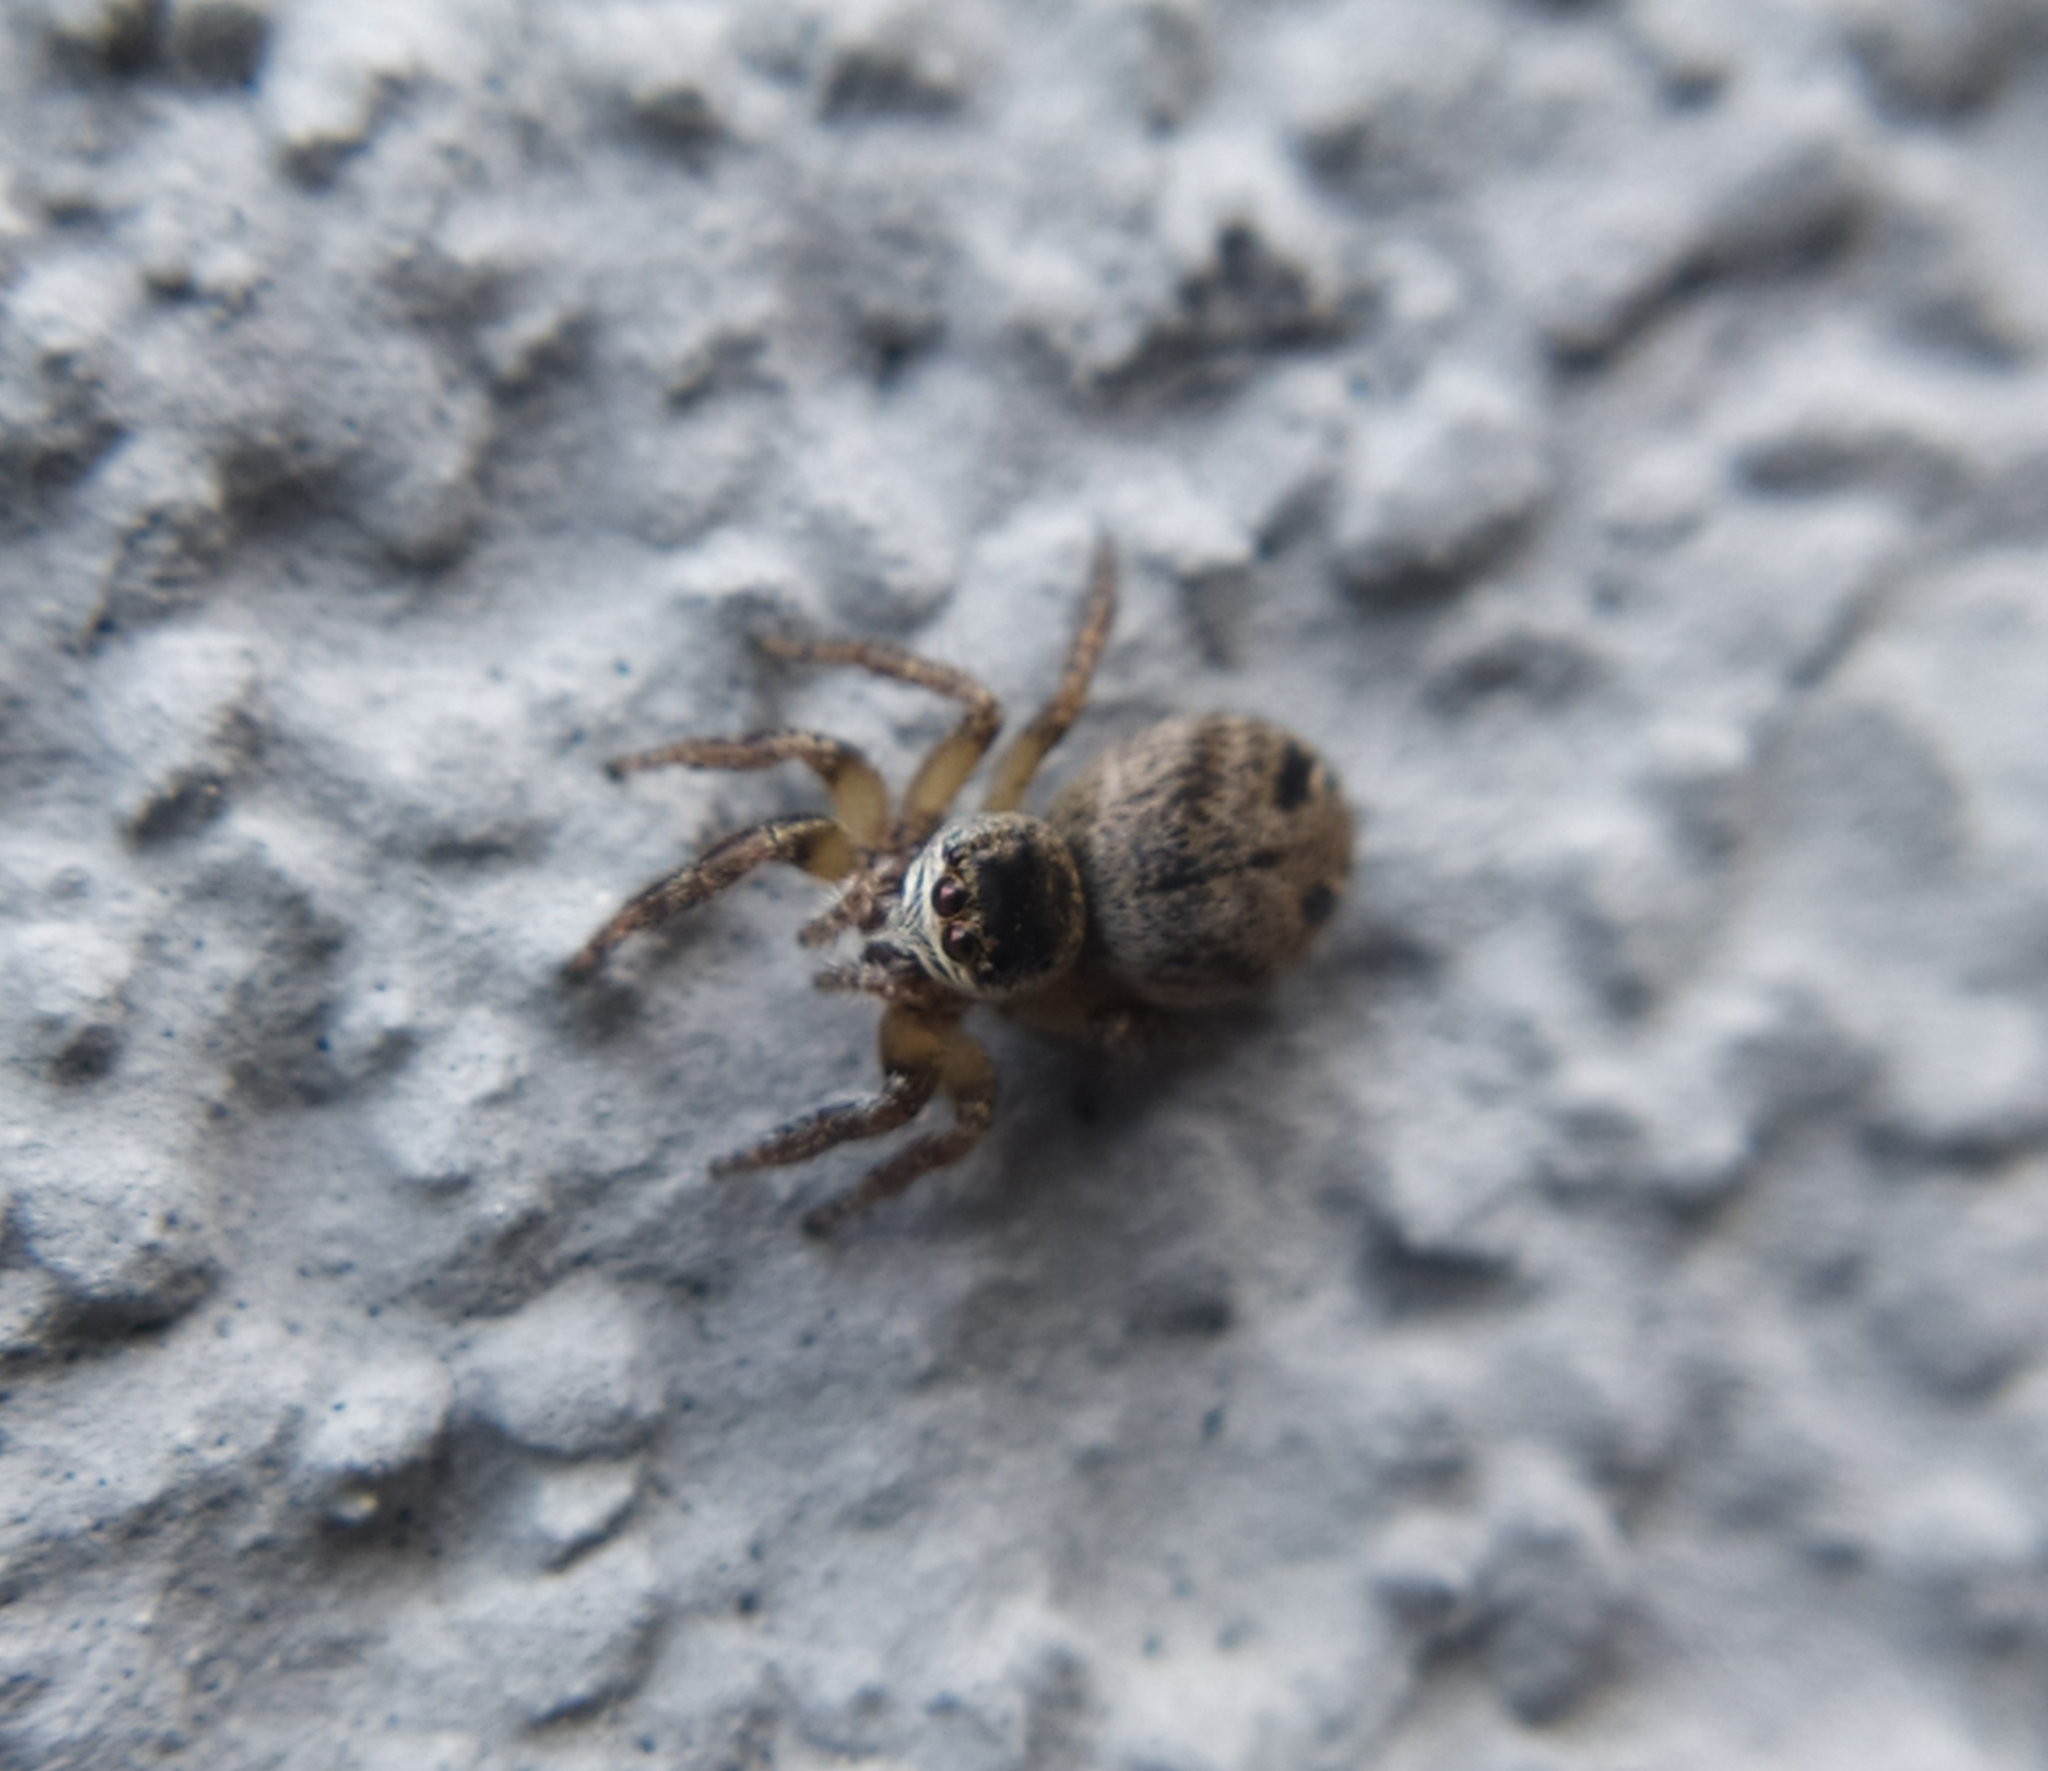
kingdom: Animalia
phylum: Arthropoda
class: Arachnida
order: Araneae
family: Salticidae
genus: Evarcha
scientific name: Evarcha arcuata
